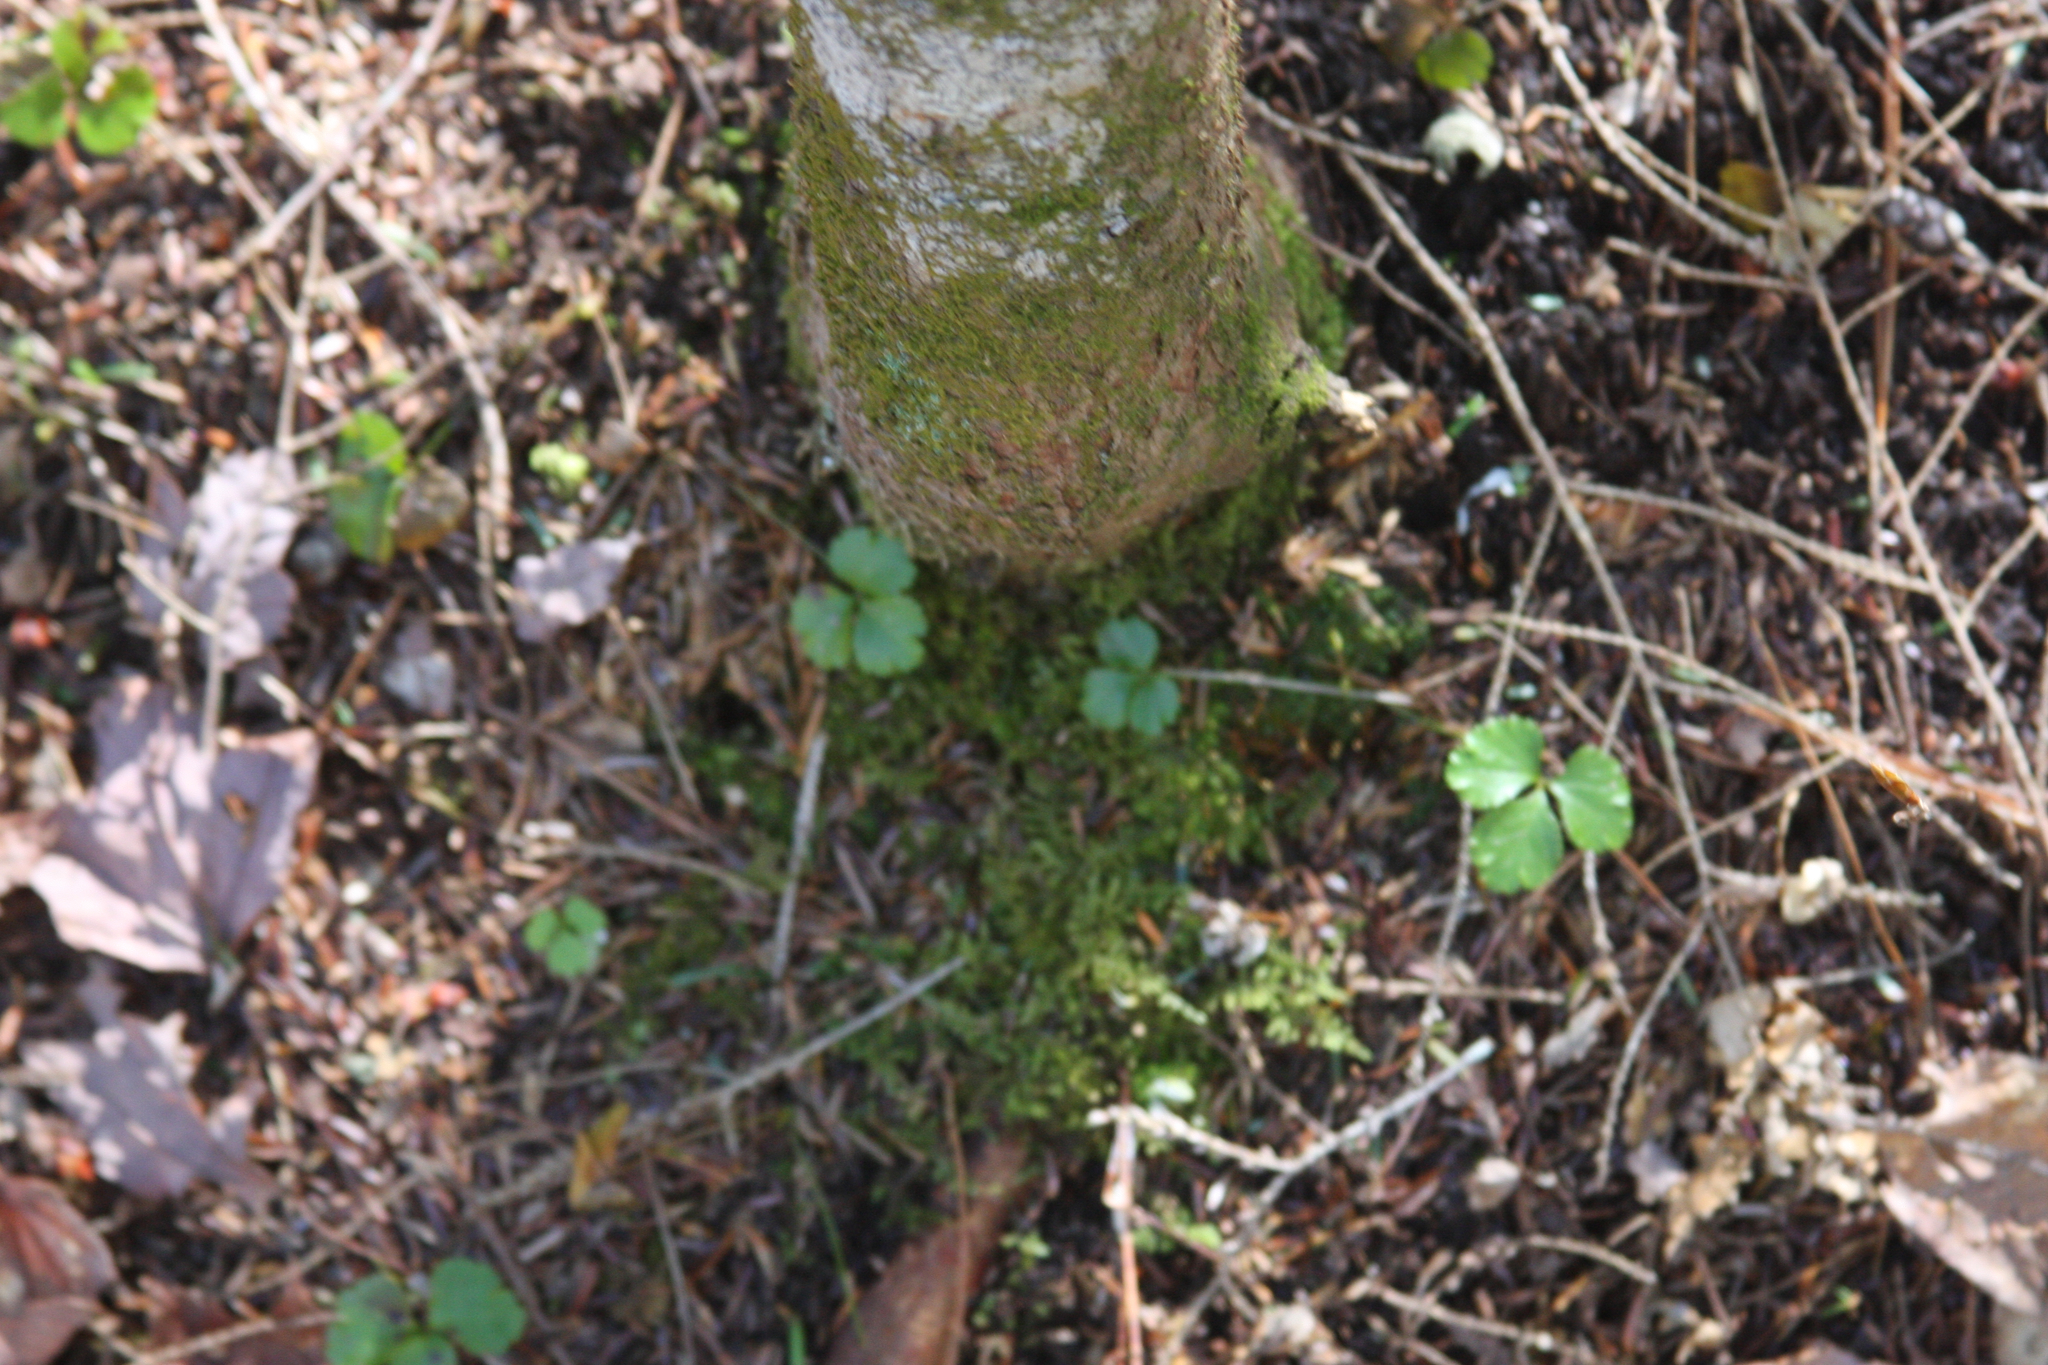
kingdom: Plantae
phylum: Tracheophyta
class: Magnoliopsida
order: Ranunculales
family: Ranunculaceae
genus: Coptis
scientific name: Coptis trifolia
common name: Canker-root
